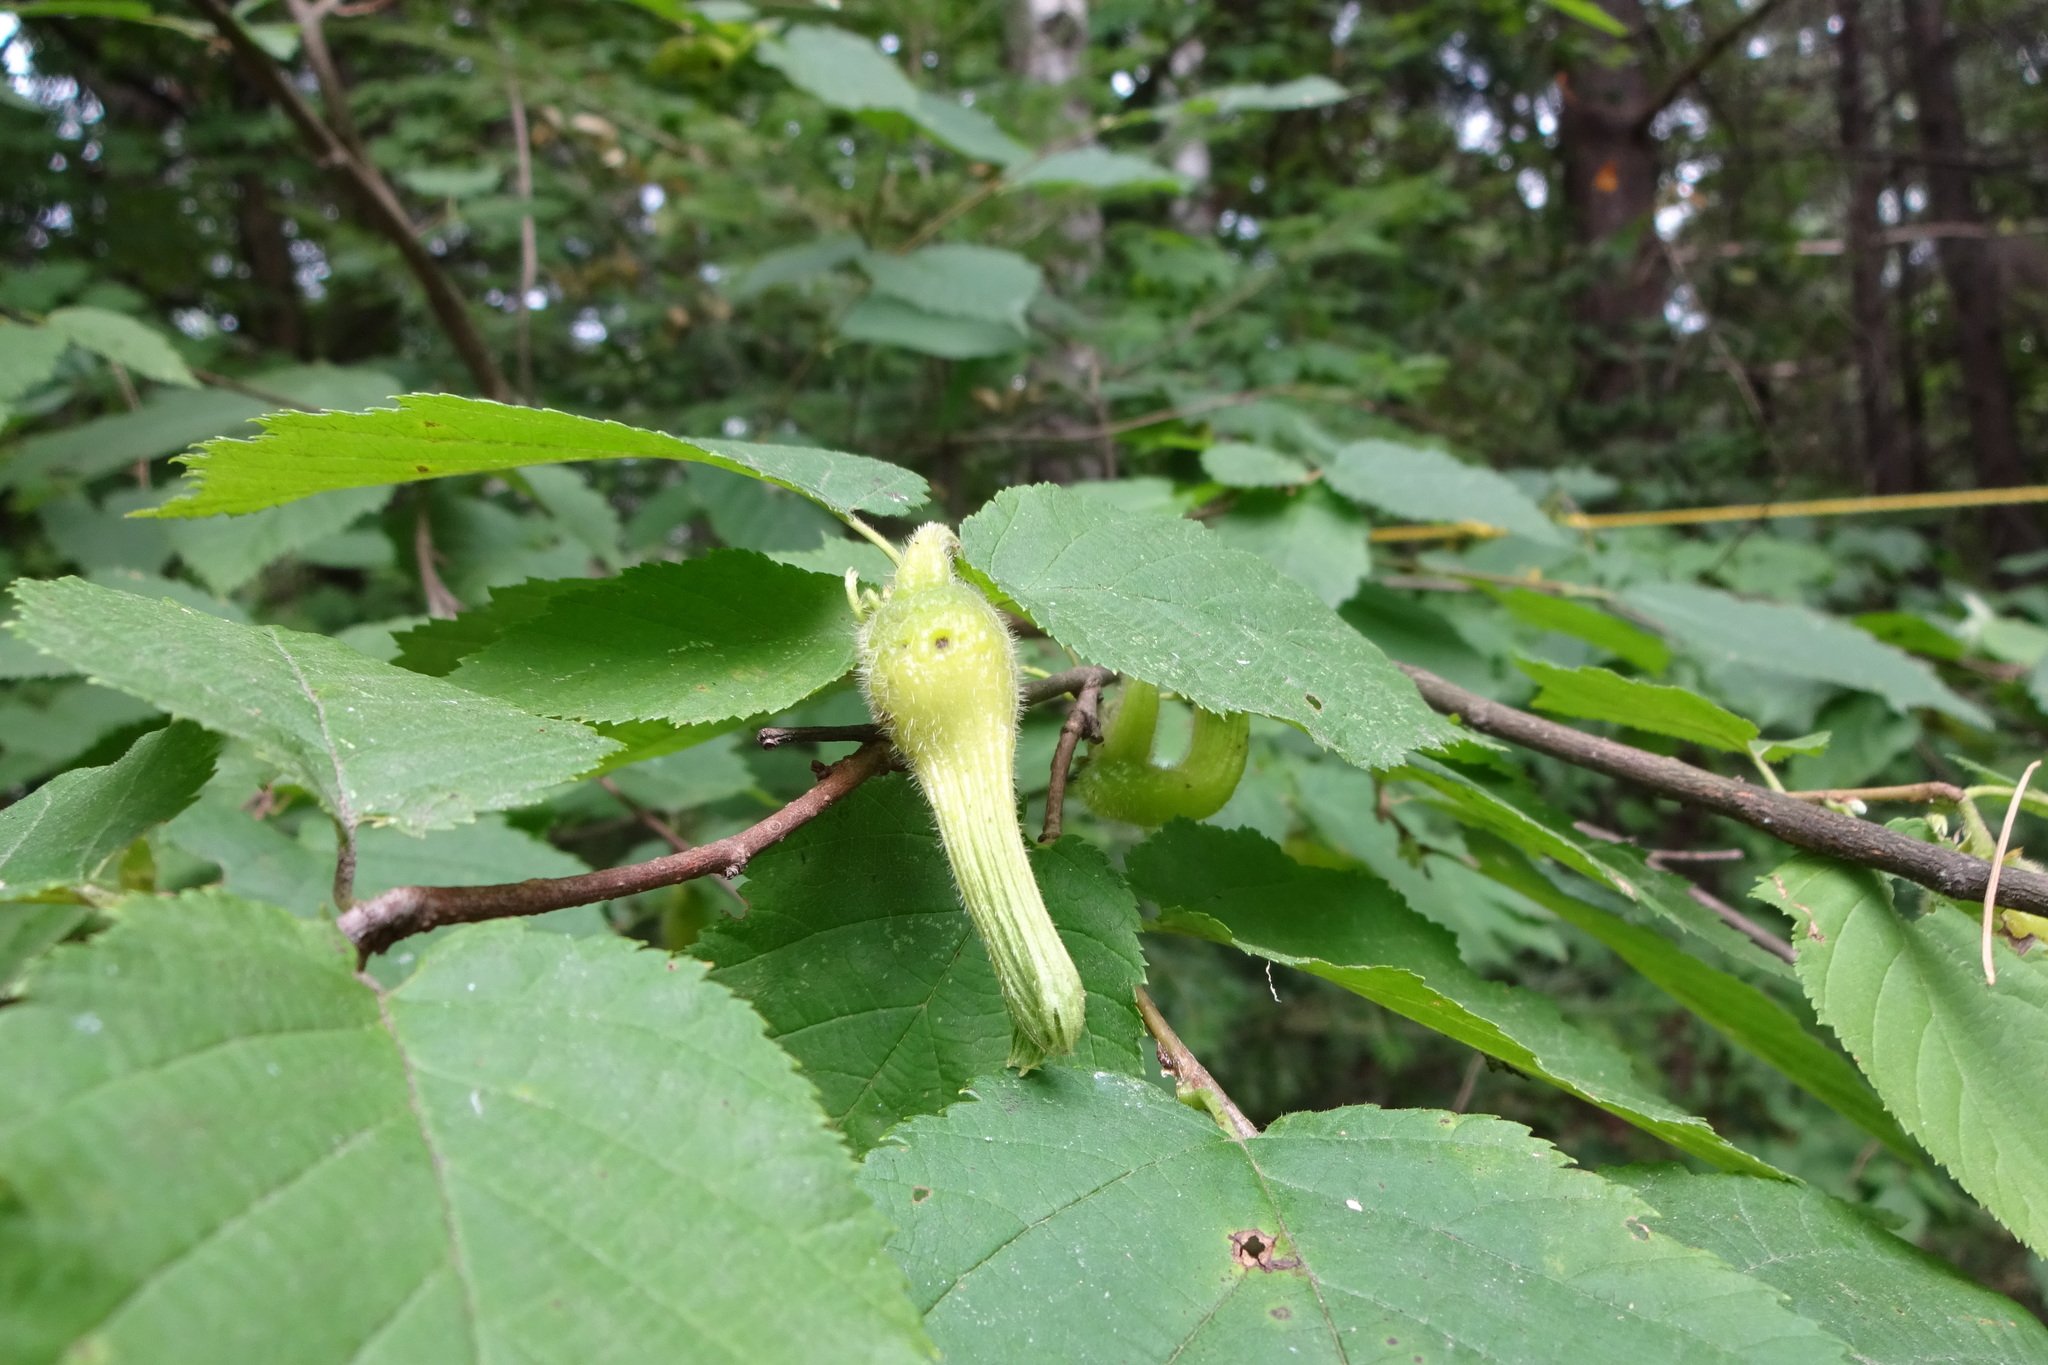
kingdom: Plantae
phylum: Tracheophyta
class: Magnoliopsida
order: Fagales
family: Betulaceae
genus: Corylus
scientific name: Corylus cornuta
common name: Beaked hazel
